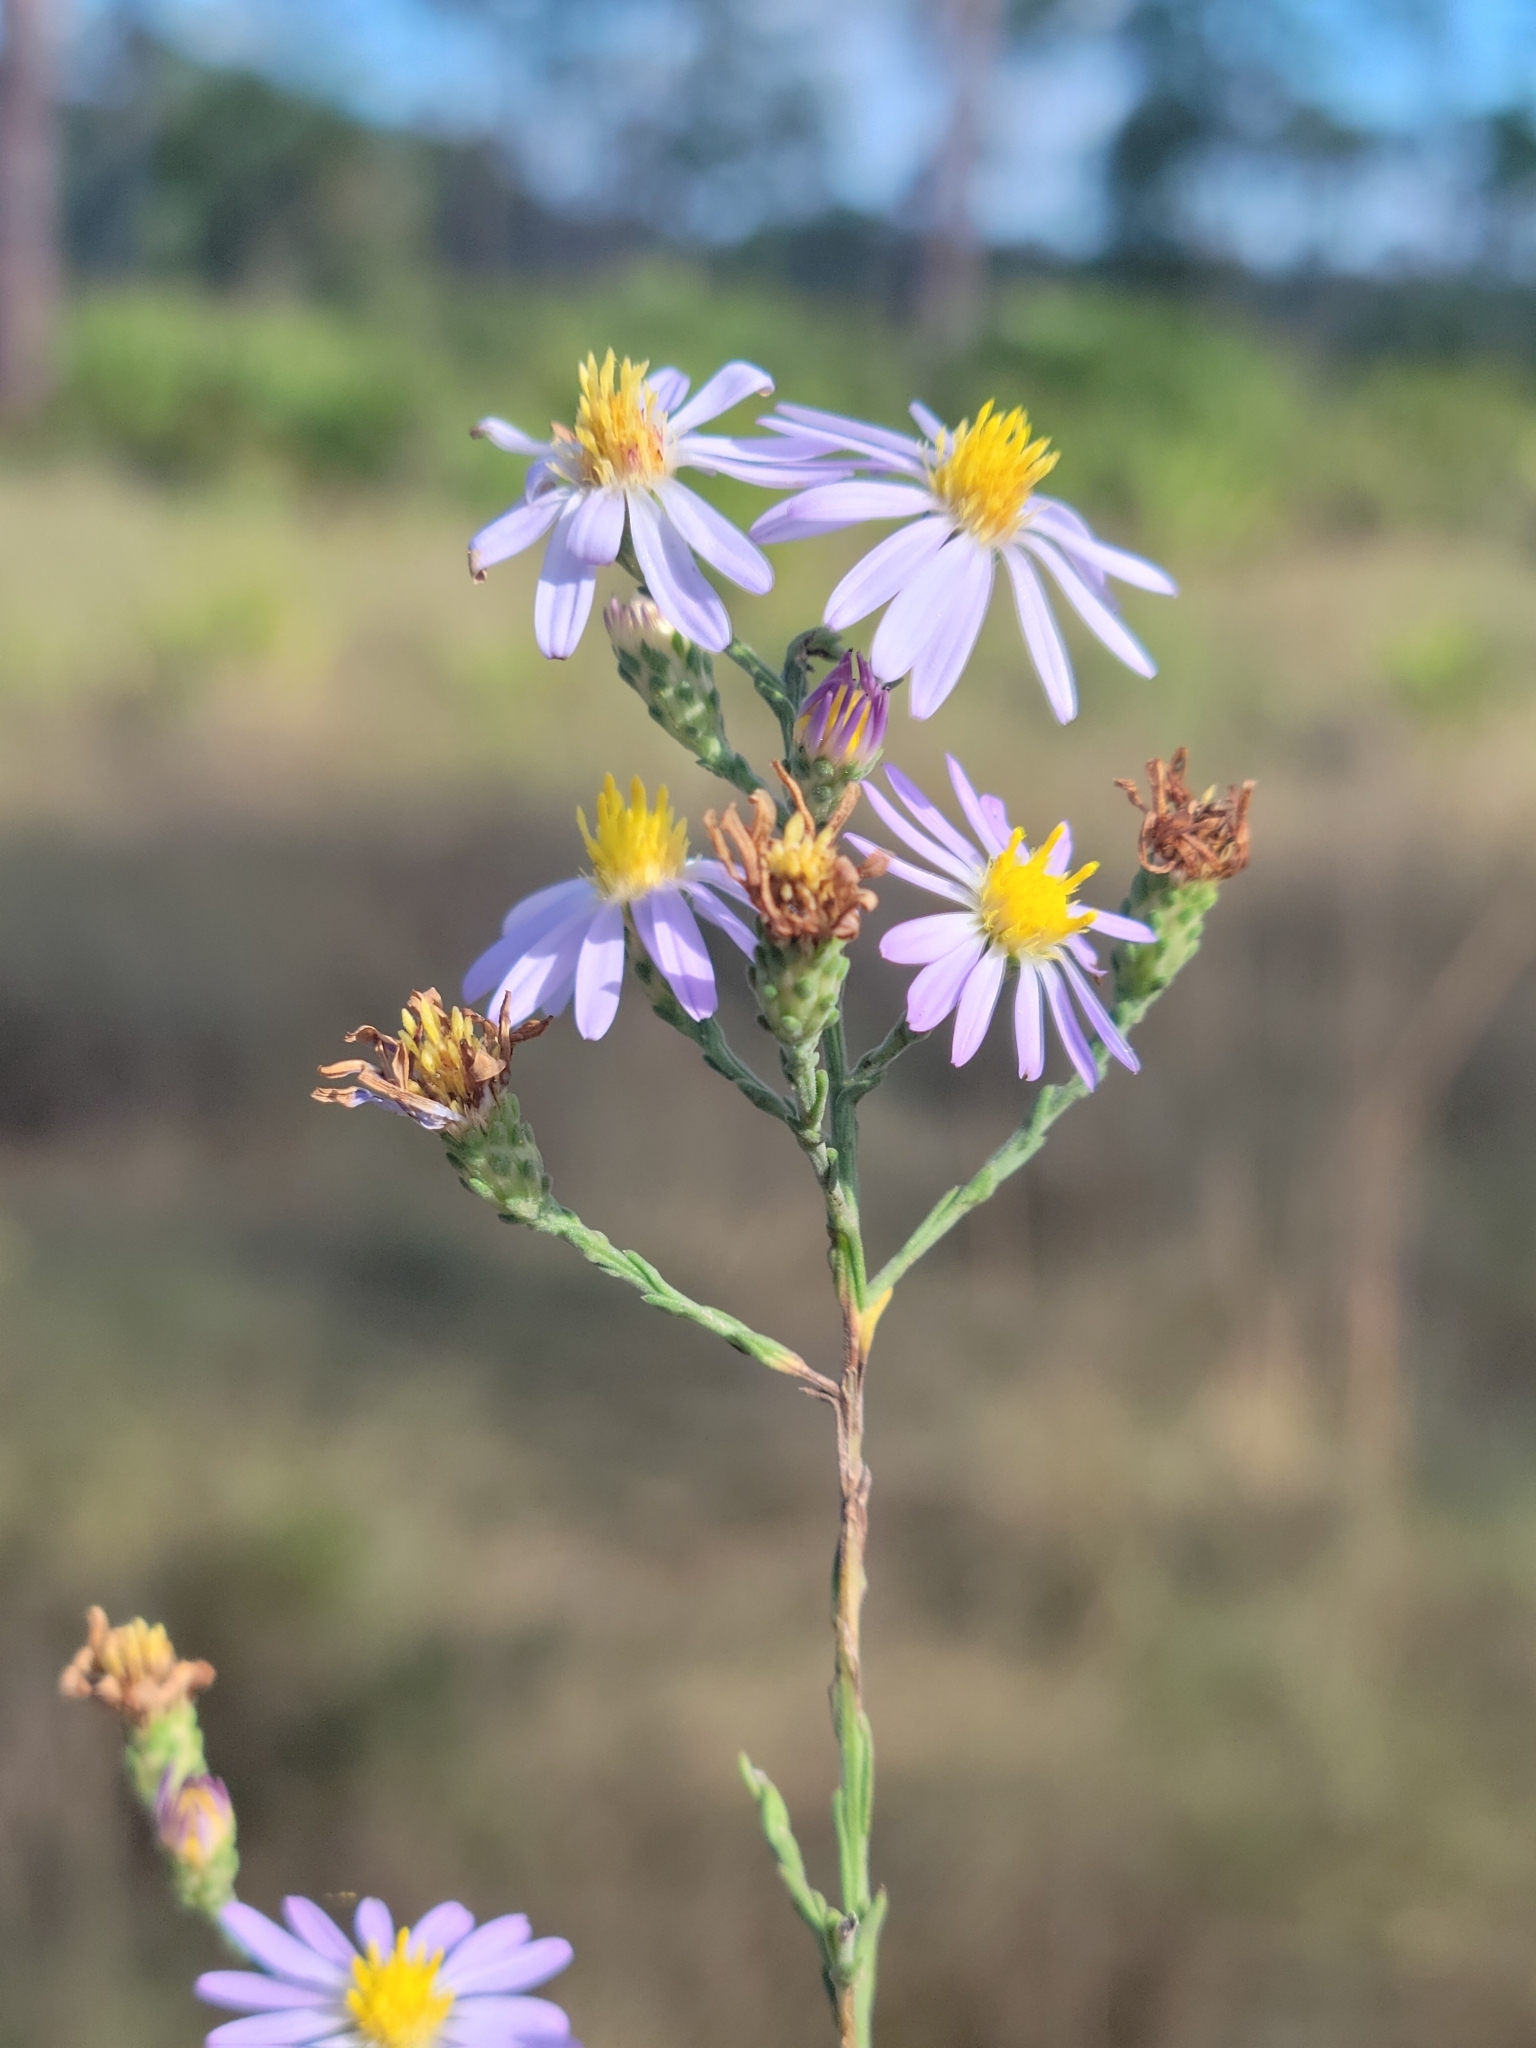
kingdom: Plantae
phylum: Tracheophyta
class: Magnoliopsida
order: Asterales
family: Asteraceae
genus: Symphyotrichum
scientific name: Symphyotrichum adnatum
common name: Scale-leaf aster
